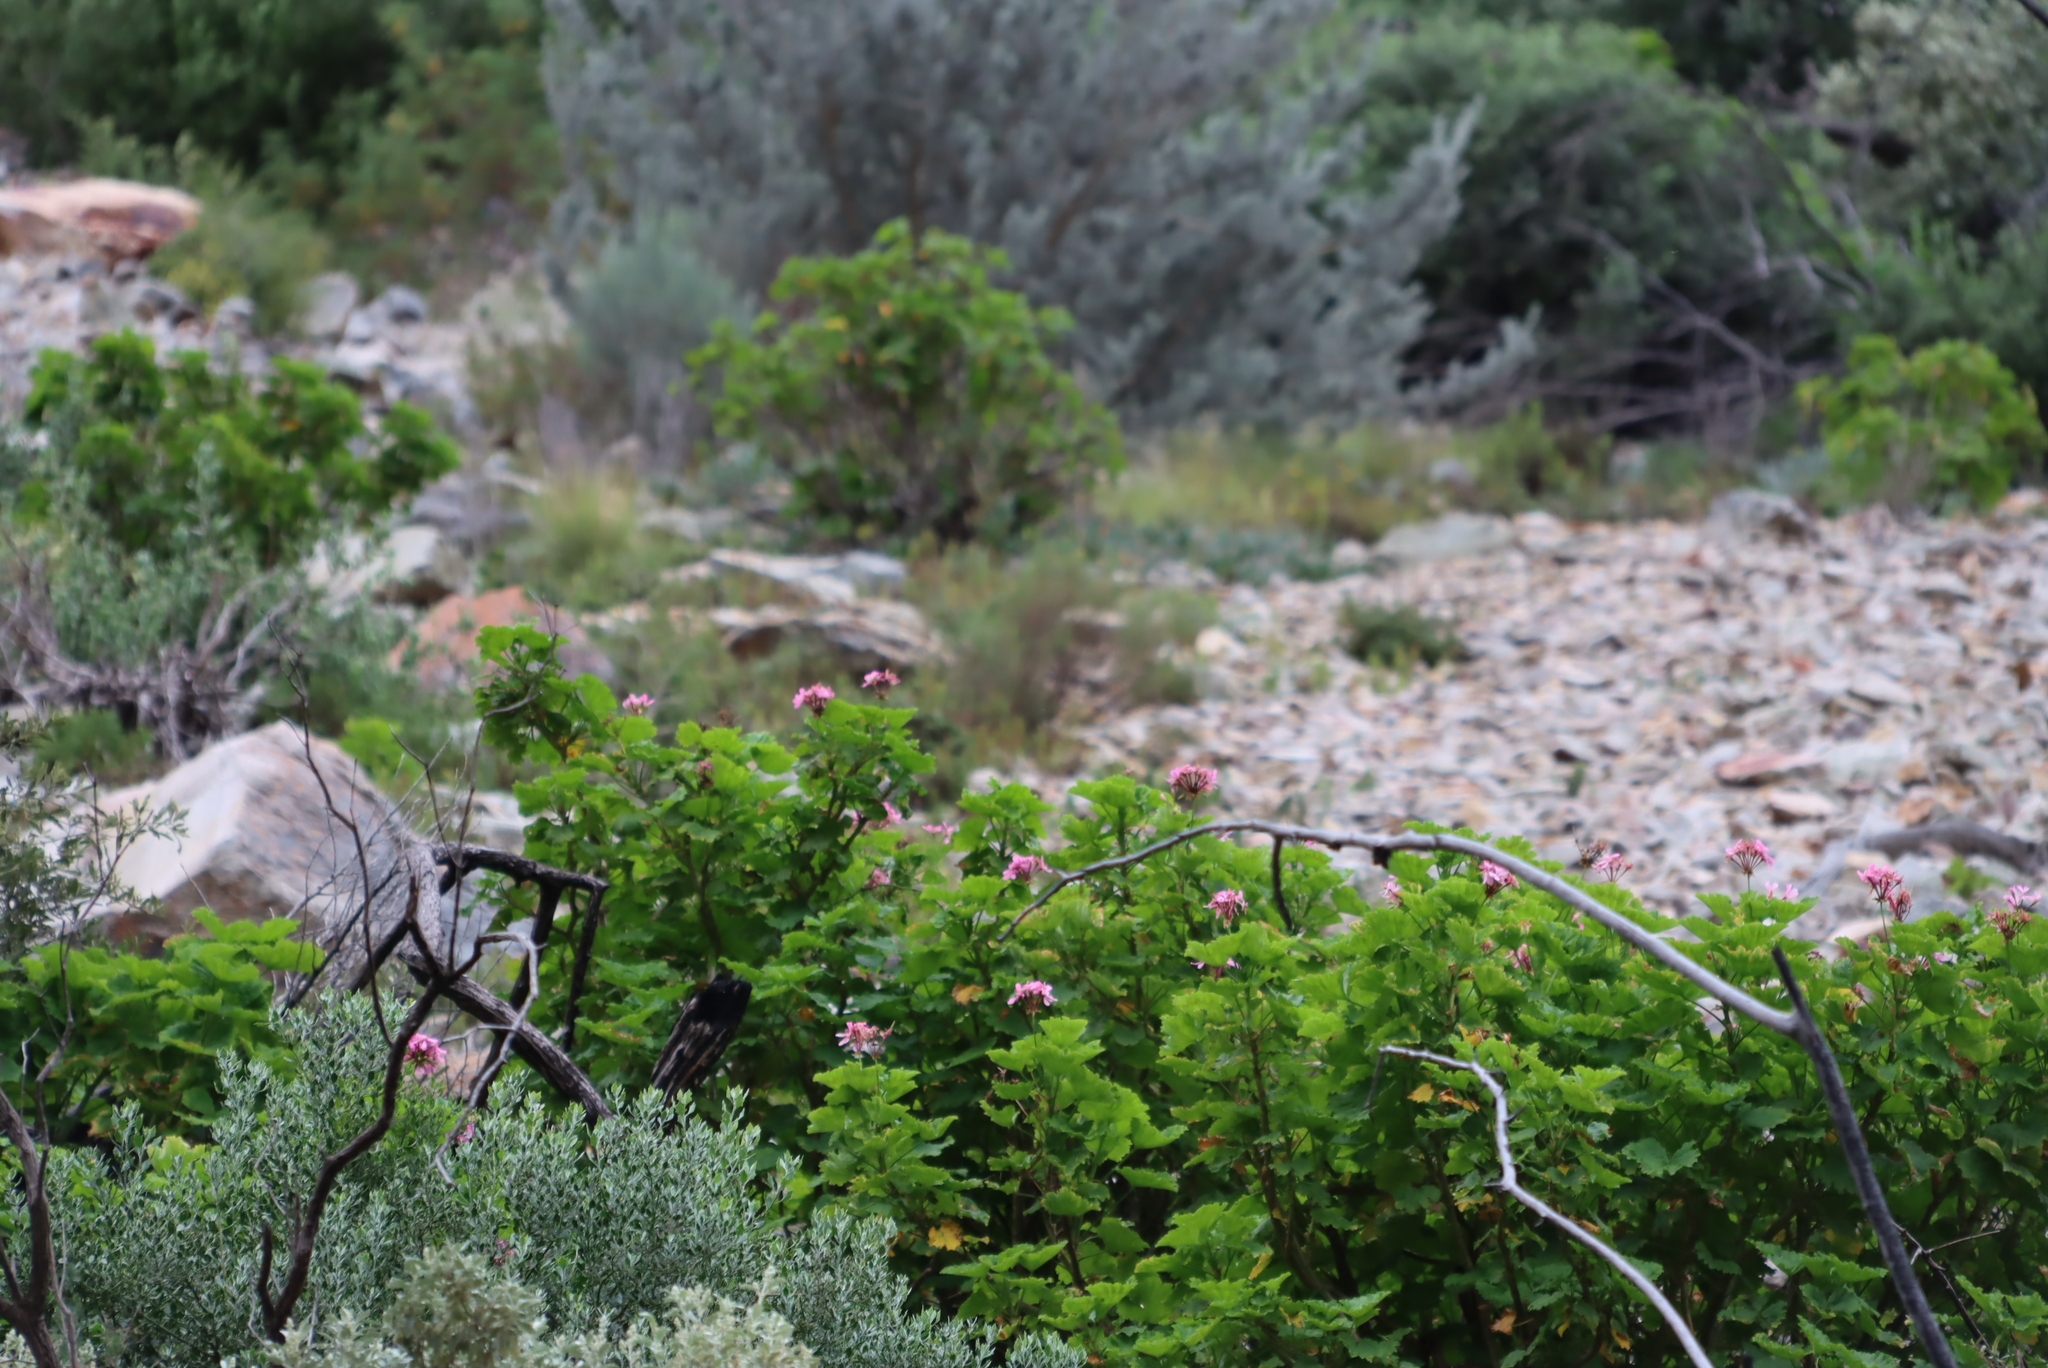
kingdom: Plantae
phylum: Tracheophyta
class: Magnoliopsida
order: Geraniales
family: Geraniaceae
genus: Pelargonium
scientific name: Pelargonium zonale
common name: Horseshoe geranium
